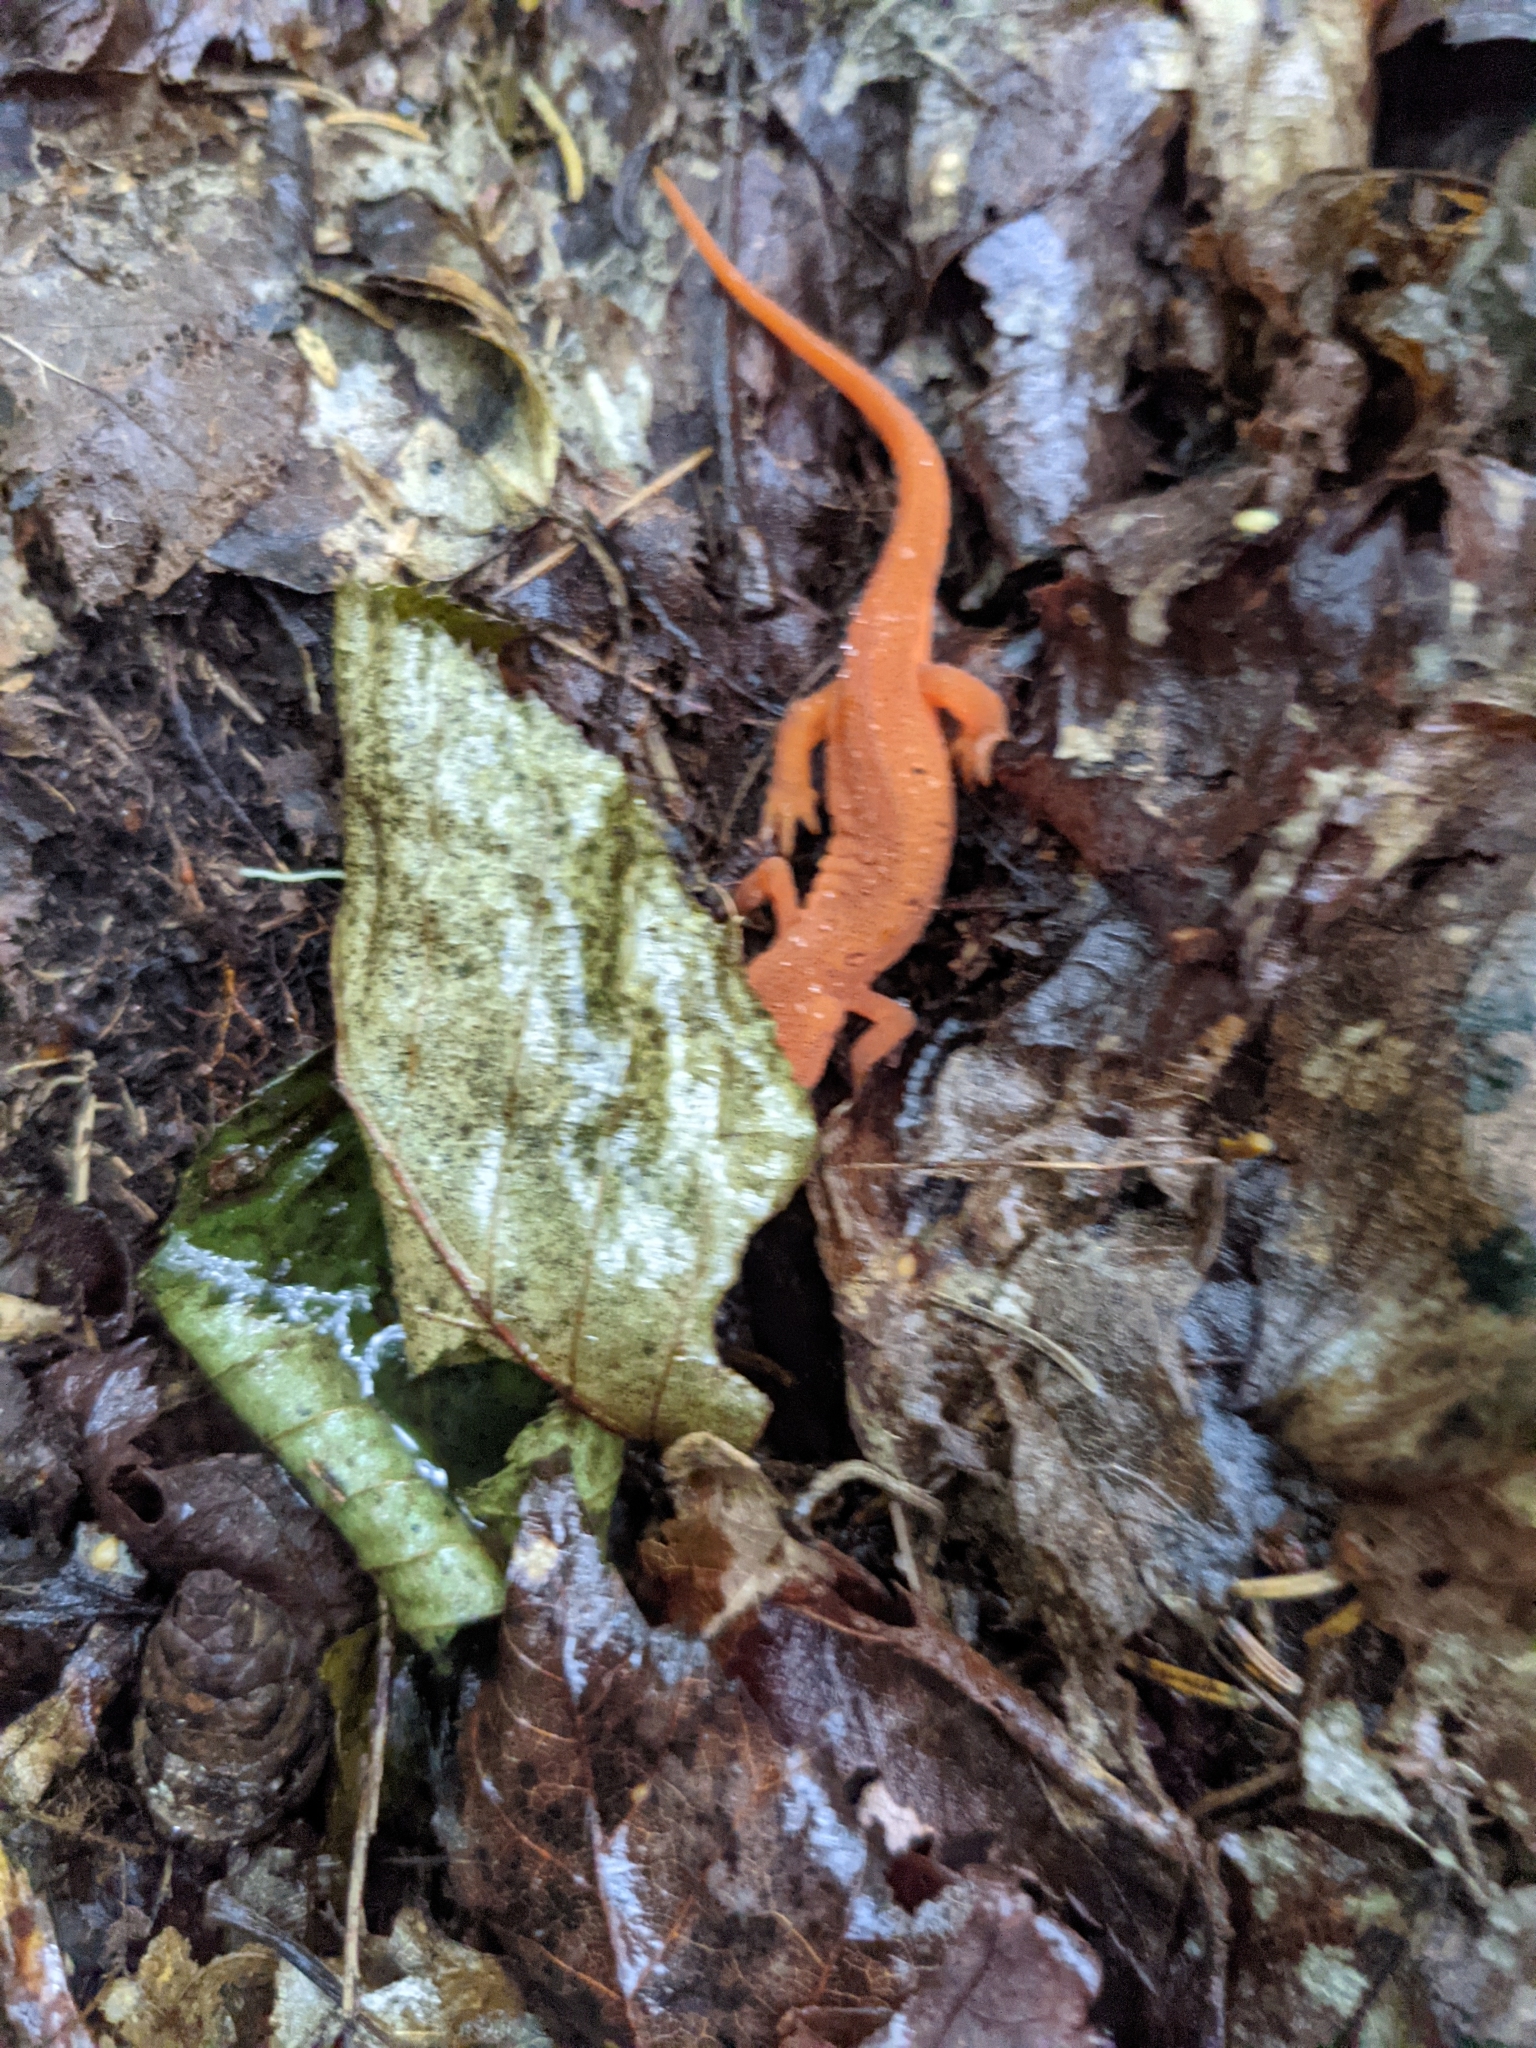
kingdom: Animalia
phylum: Chordata
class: Amphibia
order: Caudata
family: Salamandridae
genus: Notophthalmus
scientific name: Notophthalmus viridescens
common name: Eastern newt
